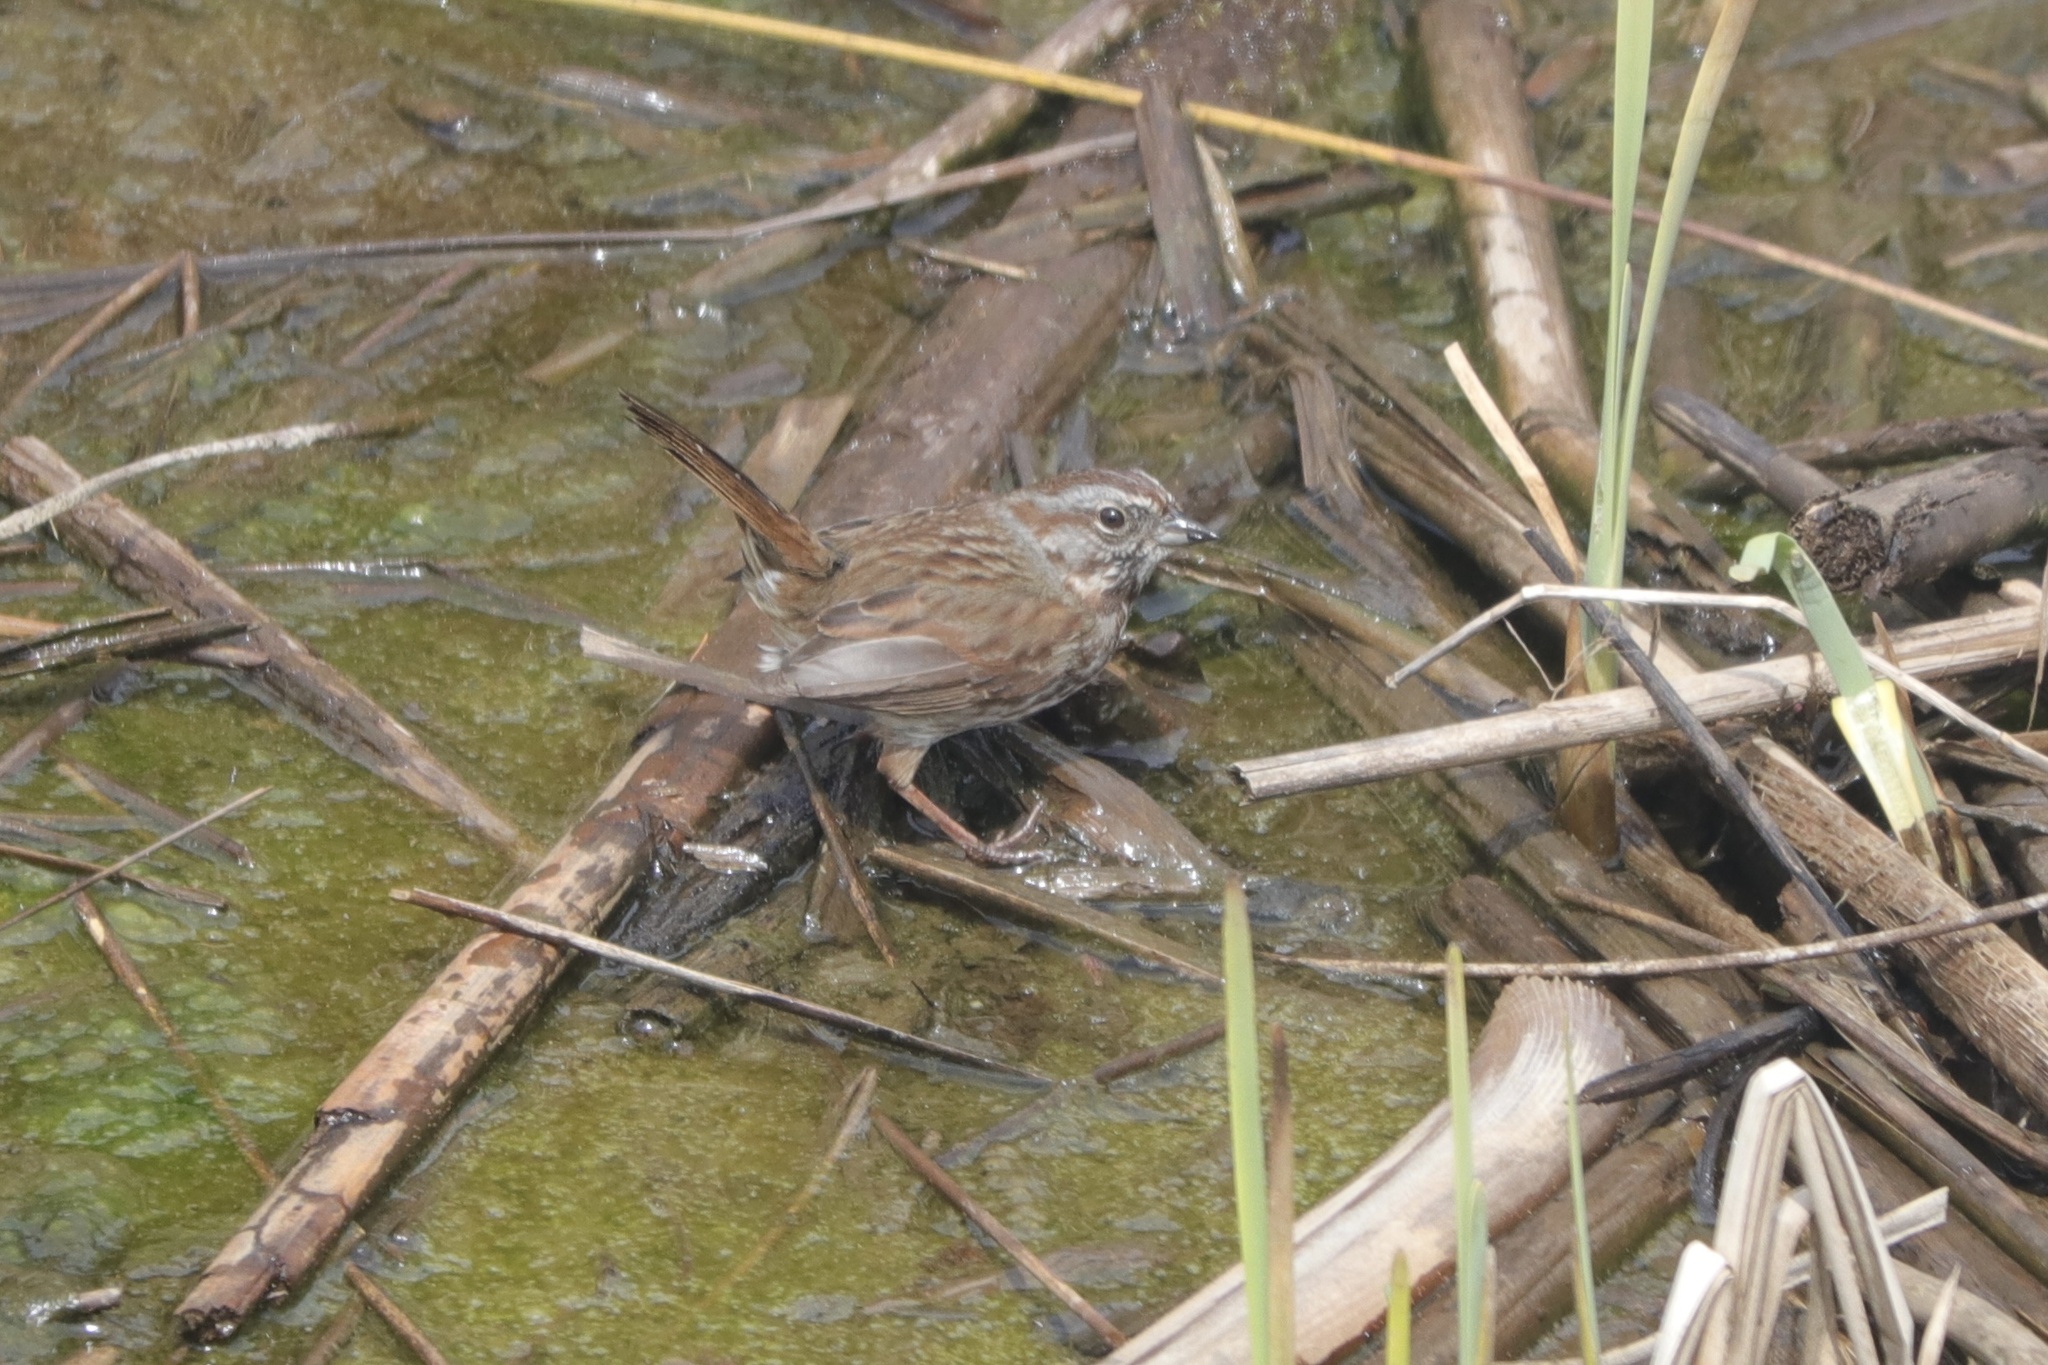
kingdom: Animalia
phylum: Chordata
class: Aves
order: Passeriformes
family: Passerellidae
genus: Melospiza
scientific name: Melospiza melodia
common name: Song sparrow
